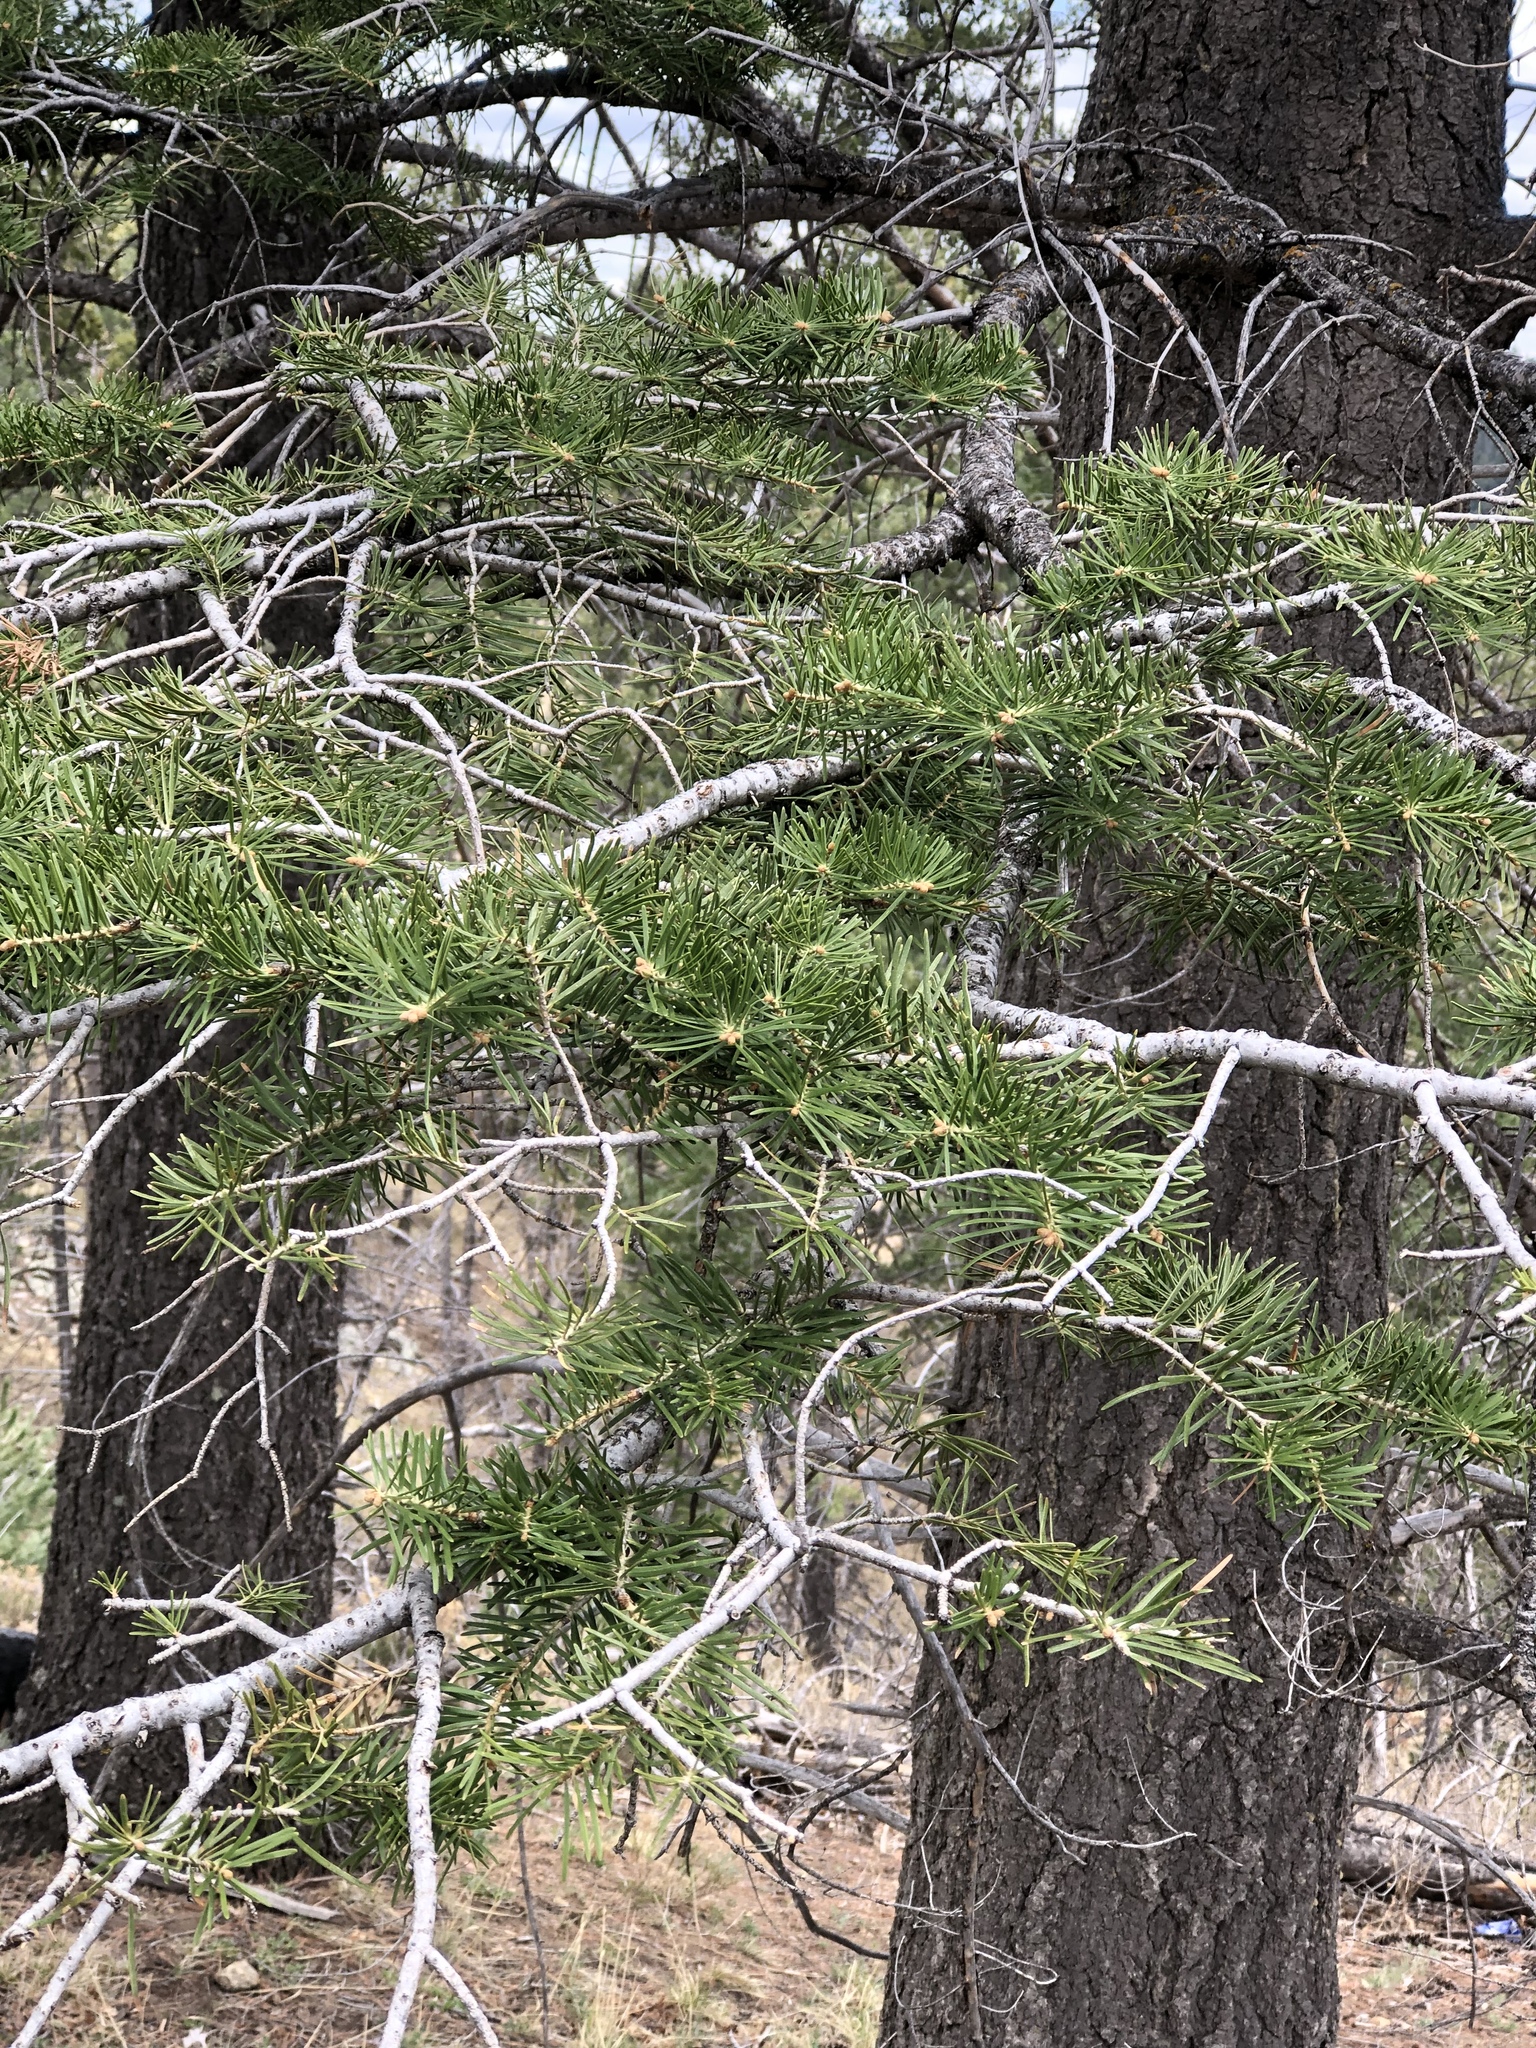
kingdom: Plantae
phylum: Tracheophyta
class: Pinopsida
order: Pinales
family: Pinaceae
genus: Abies
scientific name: Abies concolor
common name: Colorado fir
